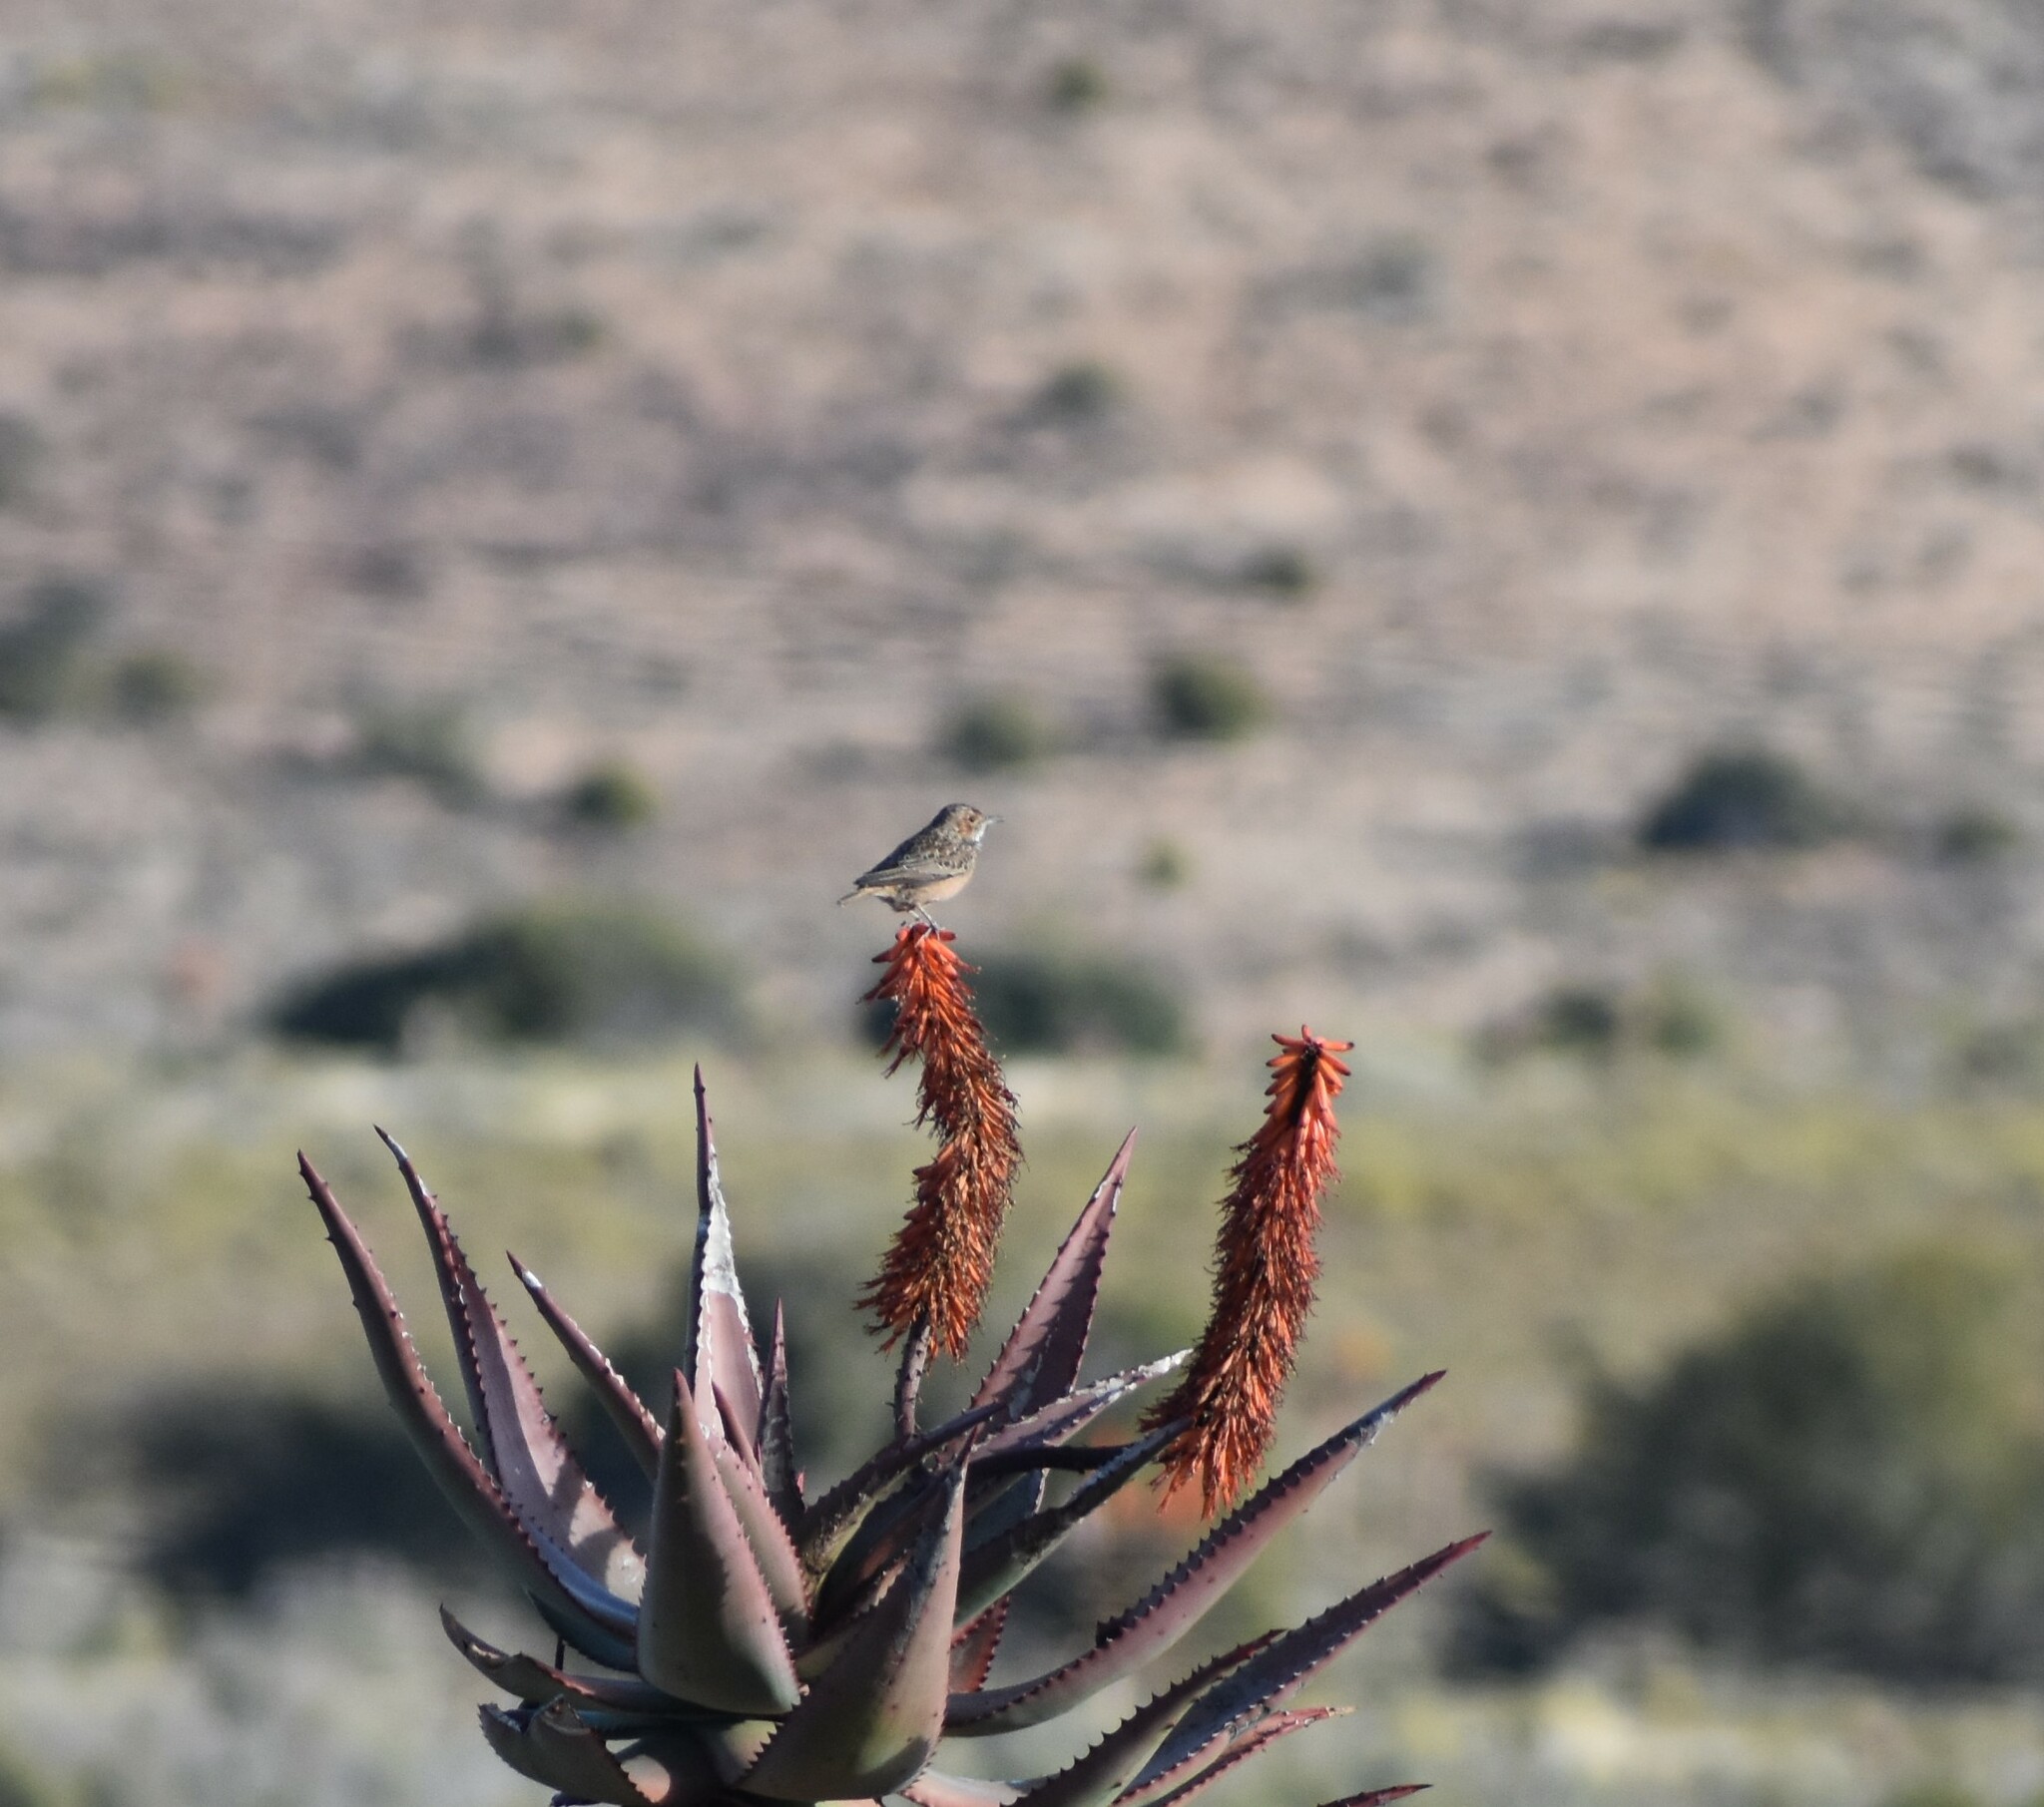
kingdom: Animalia
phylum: Chordata
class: Aves
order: Passeriformes
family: Alaudidae
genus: Chersomanes
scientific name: Chersomanes albofasciata
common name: Spike-heeled lark
